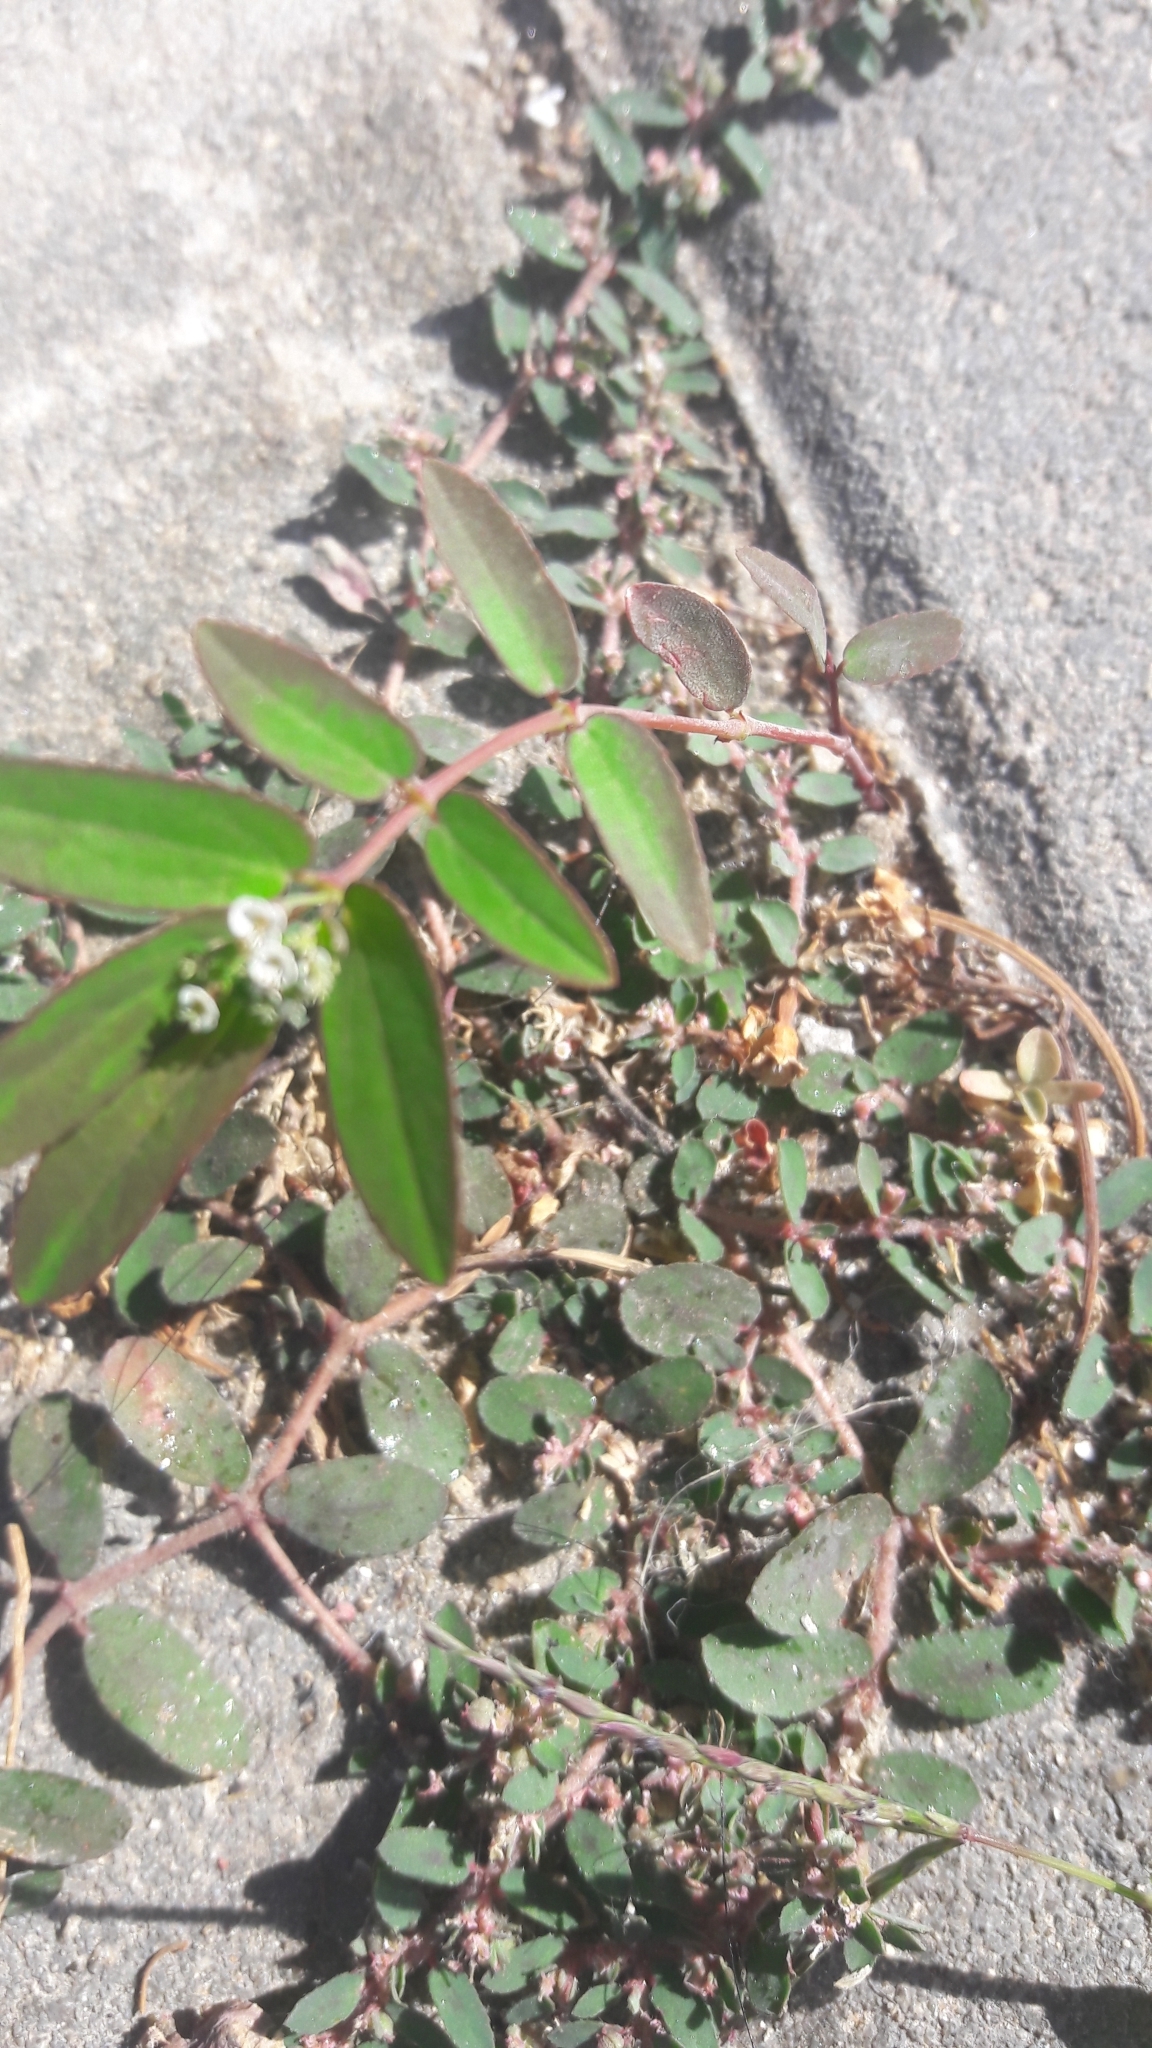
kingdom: Plantae
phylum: Tracheophyta
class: Magnoliopsida
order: Malpighiales
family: Euphorbiaceae
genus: Euphorbia
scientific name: Euphorbia hypericifolia
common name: Graceful sandmat
